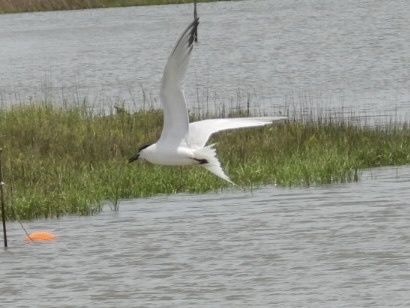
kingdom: Animalia
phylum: Chordata
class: Aves
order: Charadriiformes
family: Laridae
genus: Gelochelidon
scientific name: Gelochelidon nilotica
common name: Gull-billed tern
